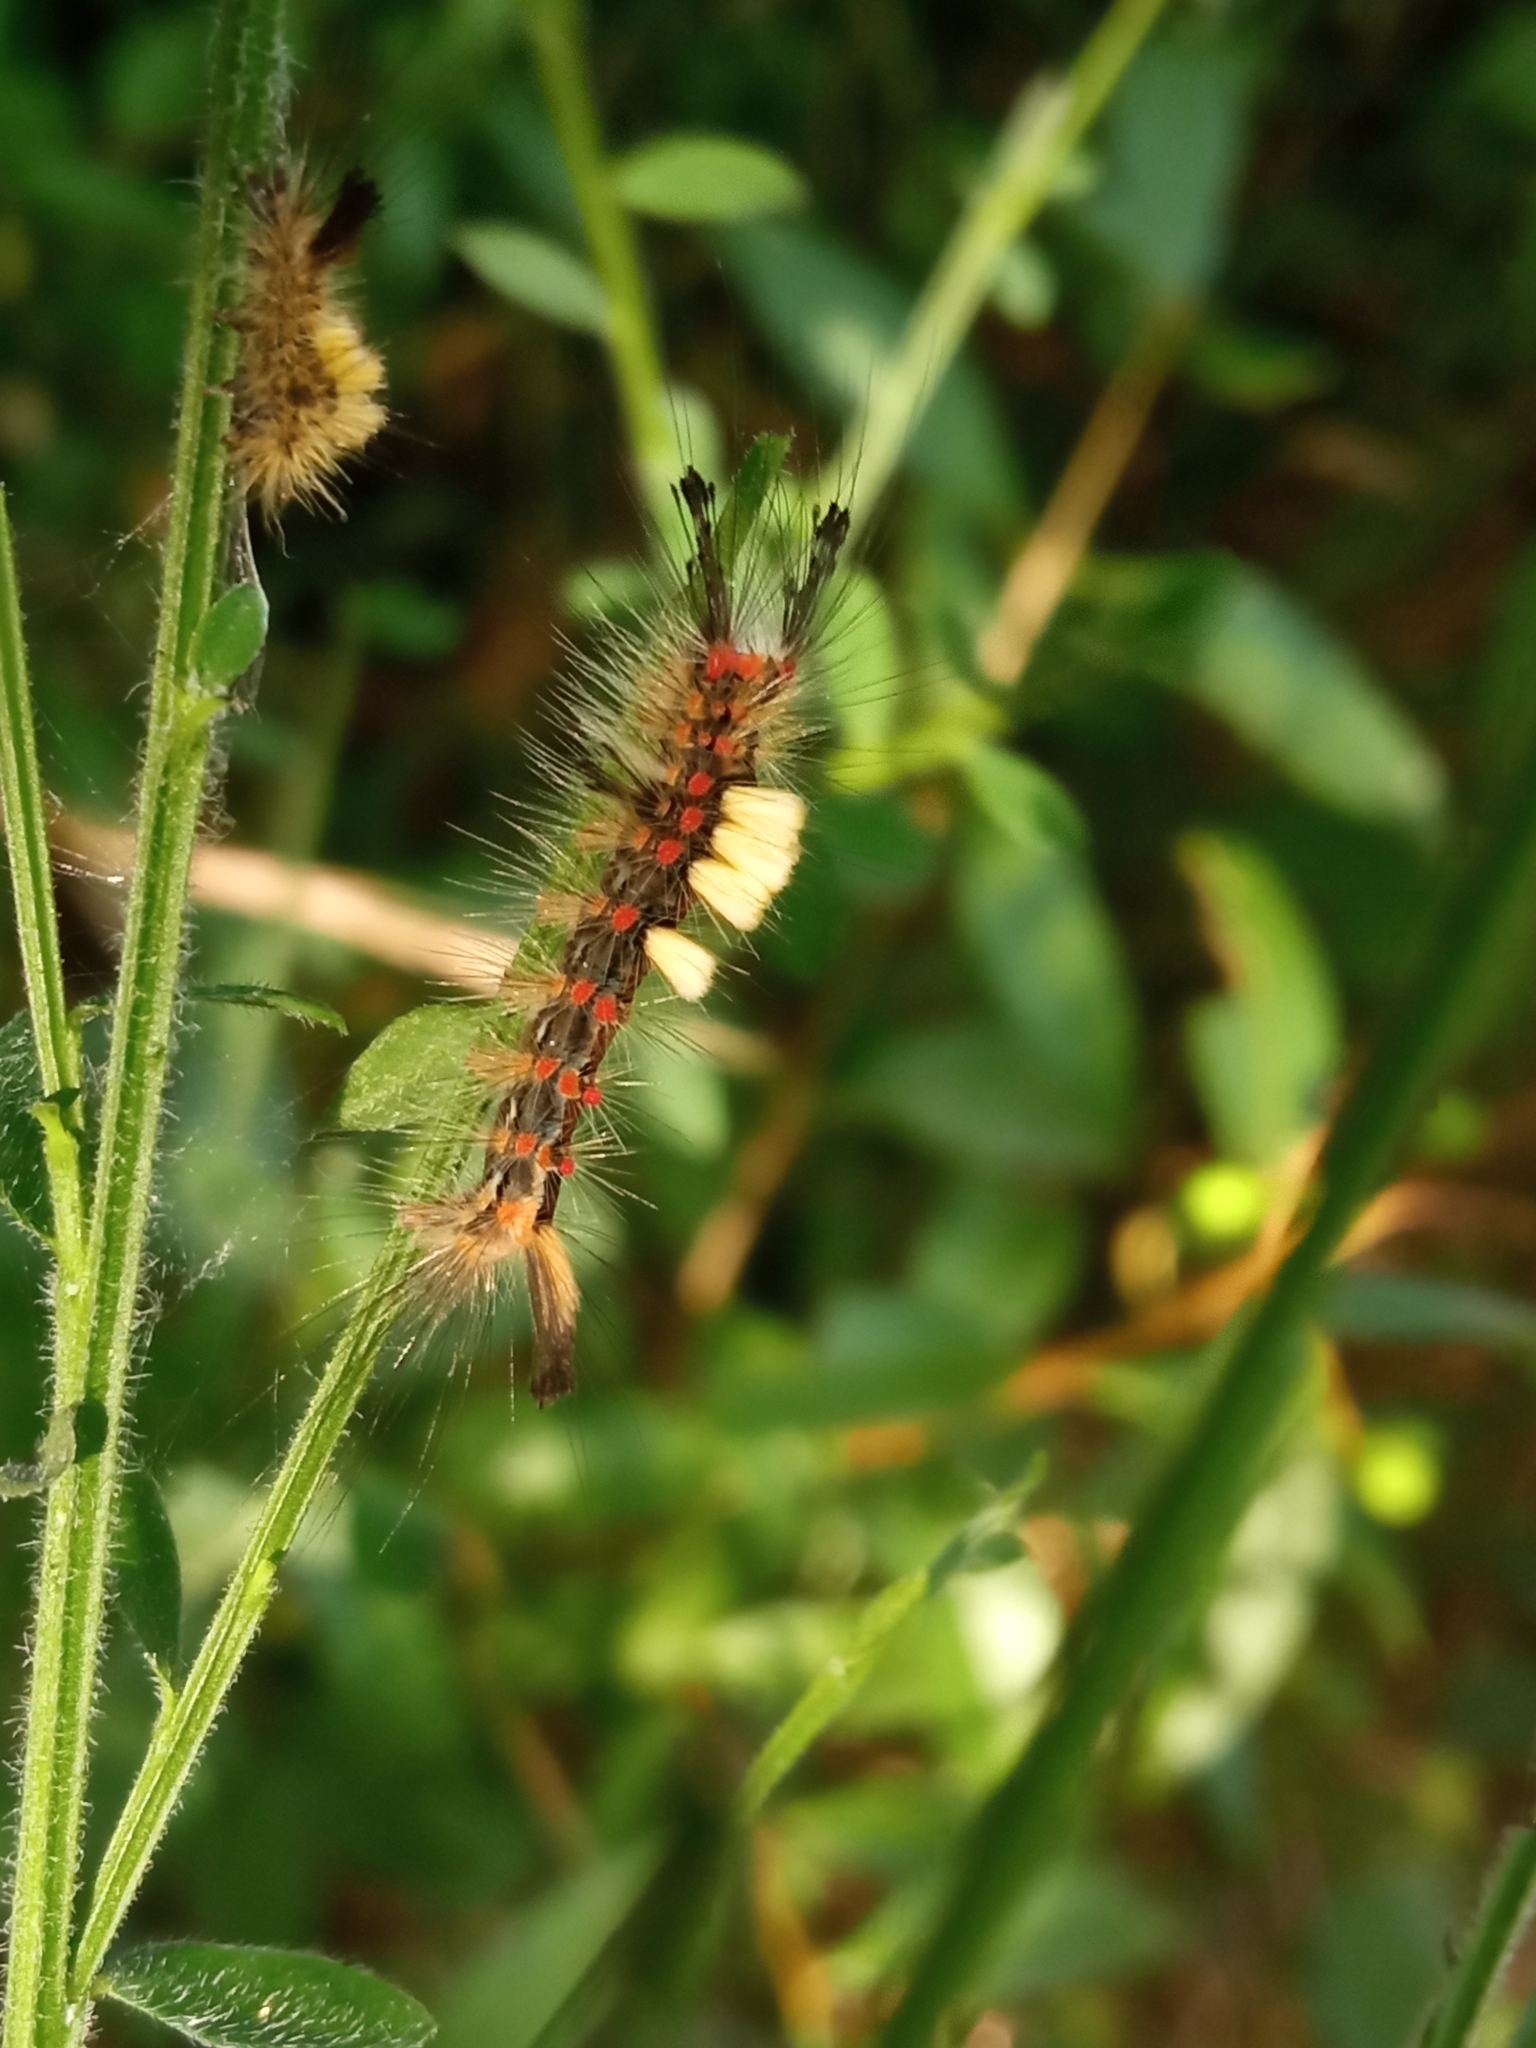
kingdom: Animalia
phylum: Arthropoda
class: Insecta
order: Lepidoptera
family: Erebidae
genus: Orgyia
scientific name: Orgyia antiqua
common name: Vapourer
